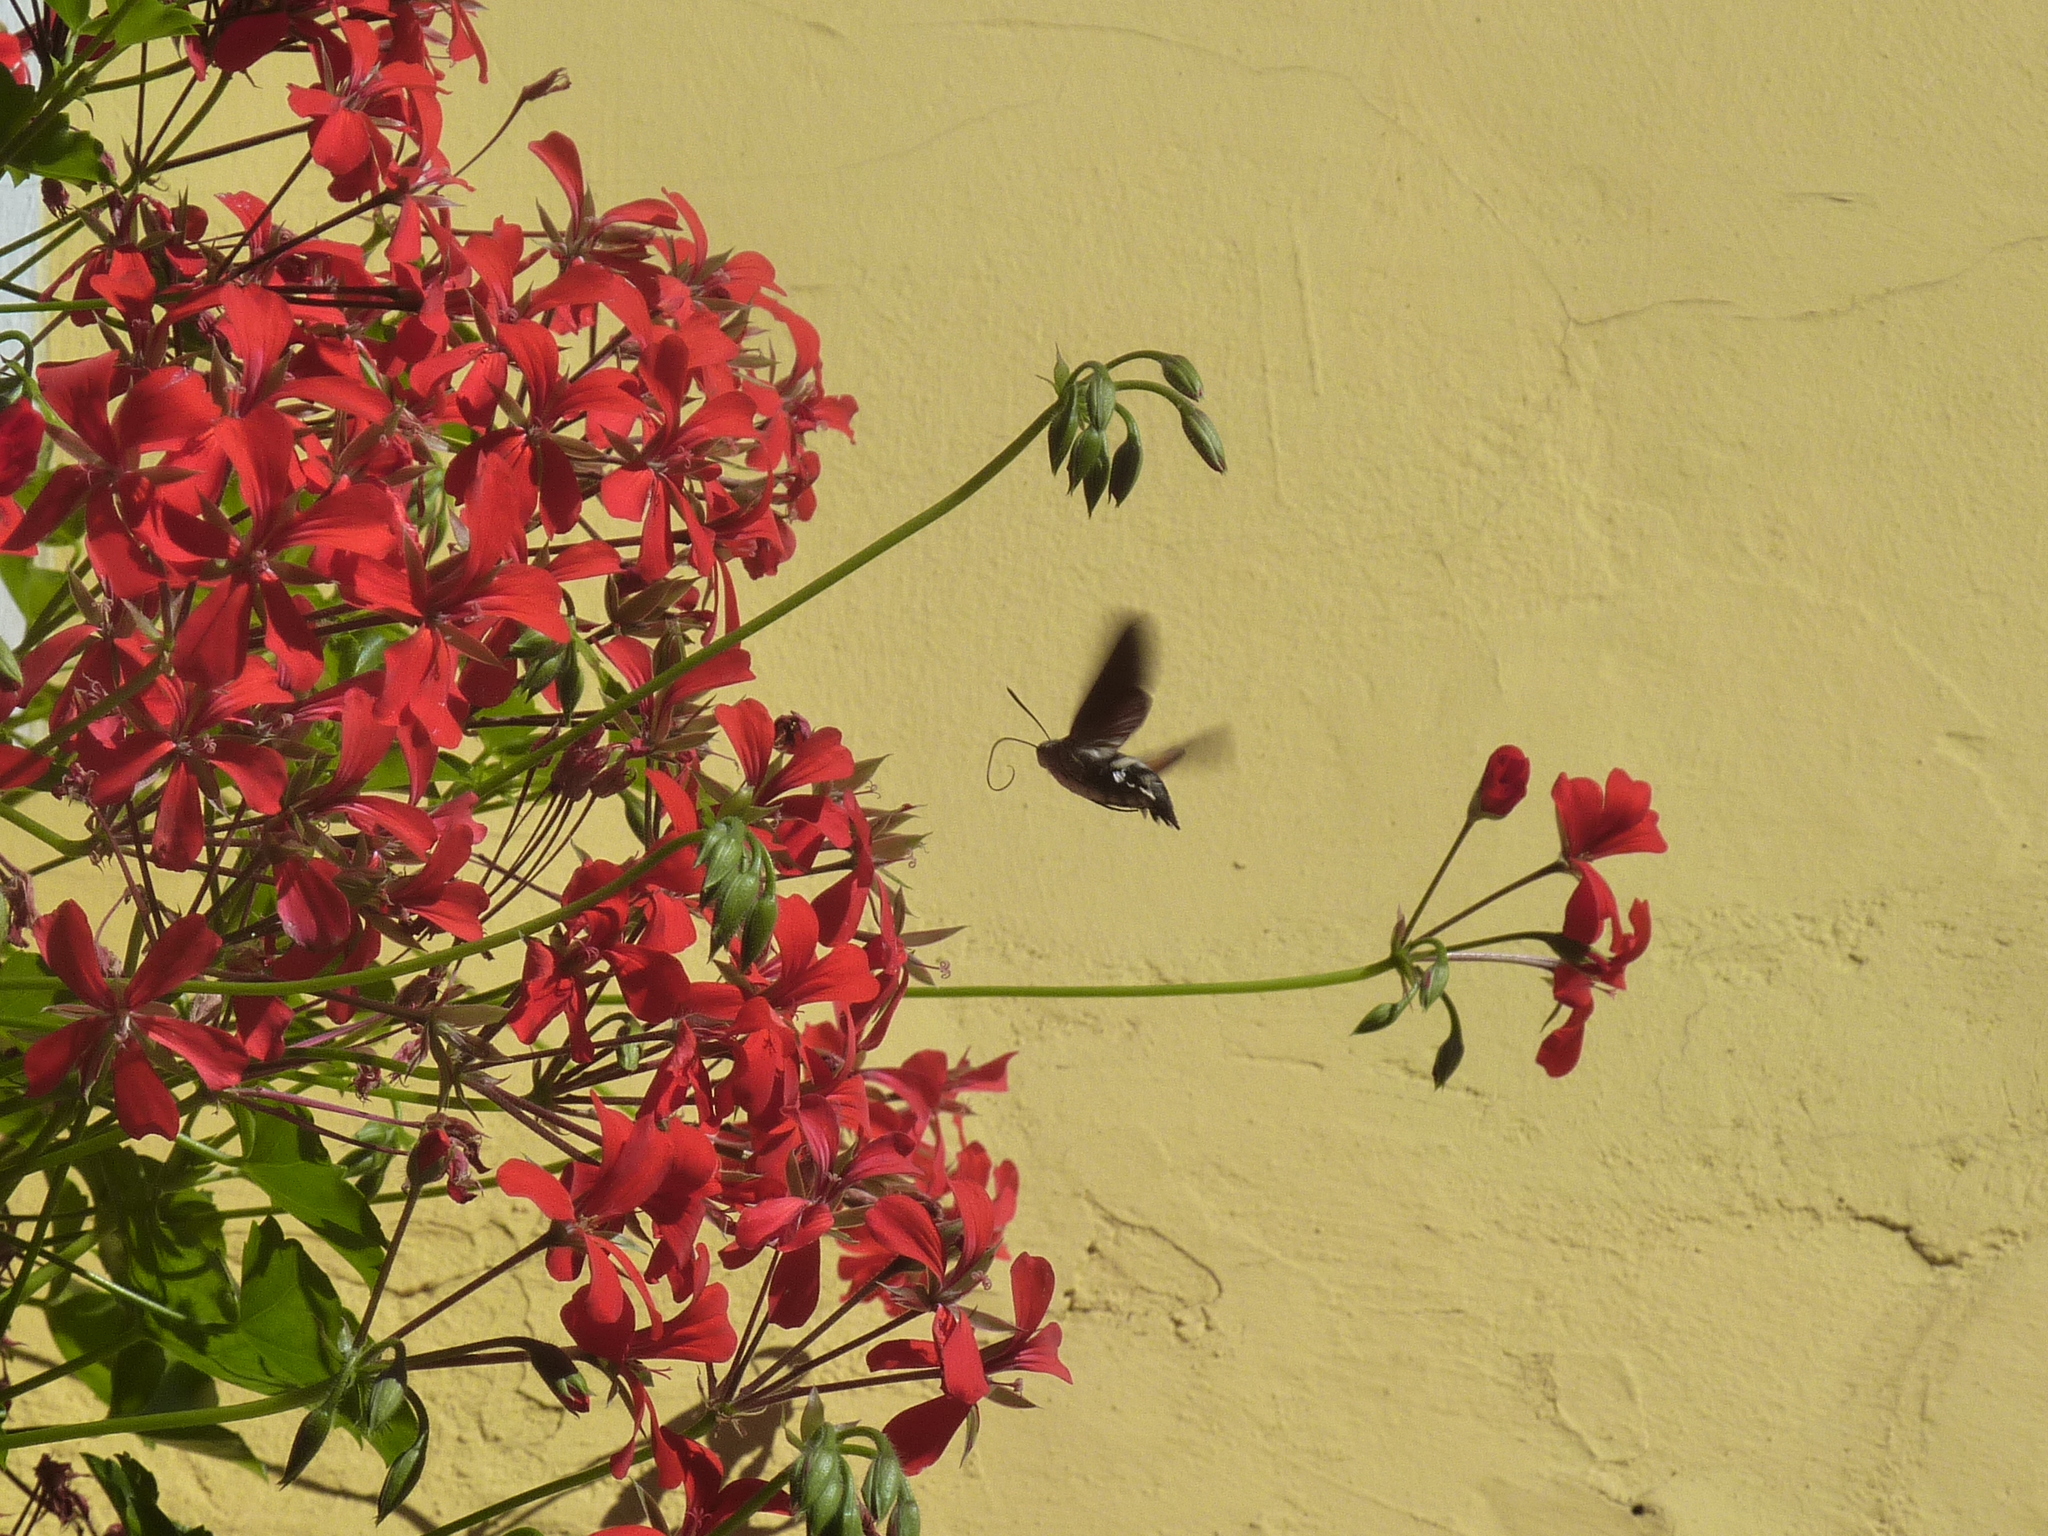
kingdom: Animalia
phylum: Arthropoda
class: Insecta
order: Lepidoptera
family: Sphingidae
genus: Macroglossum
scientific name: Macroglossum stellatarum
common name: Humming-bird hawk-moth
